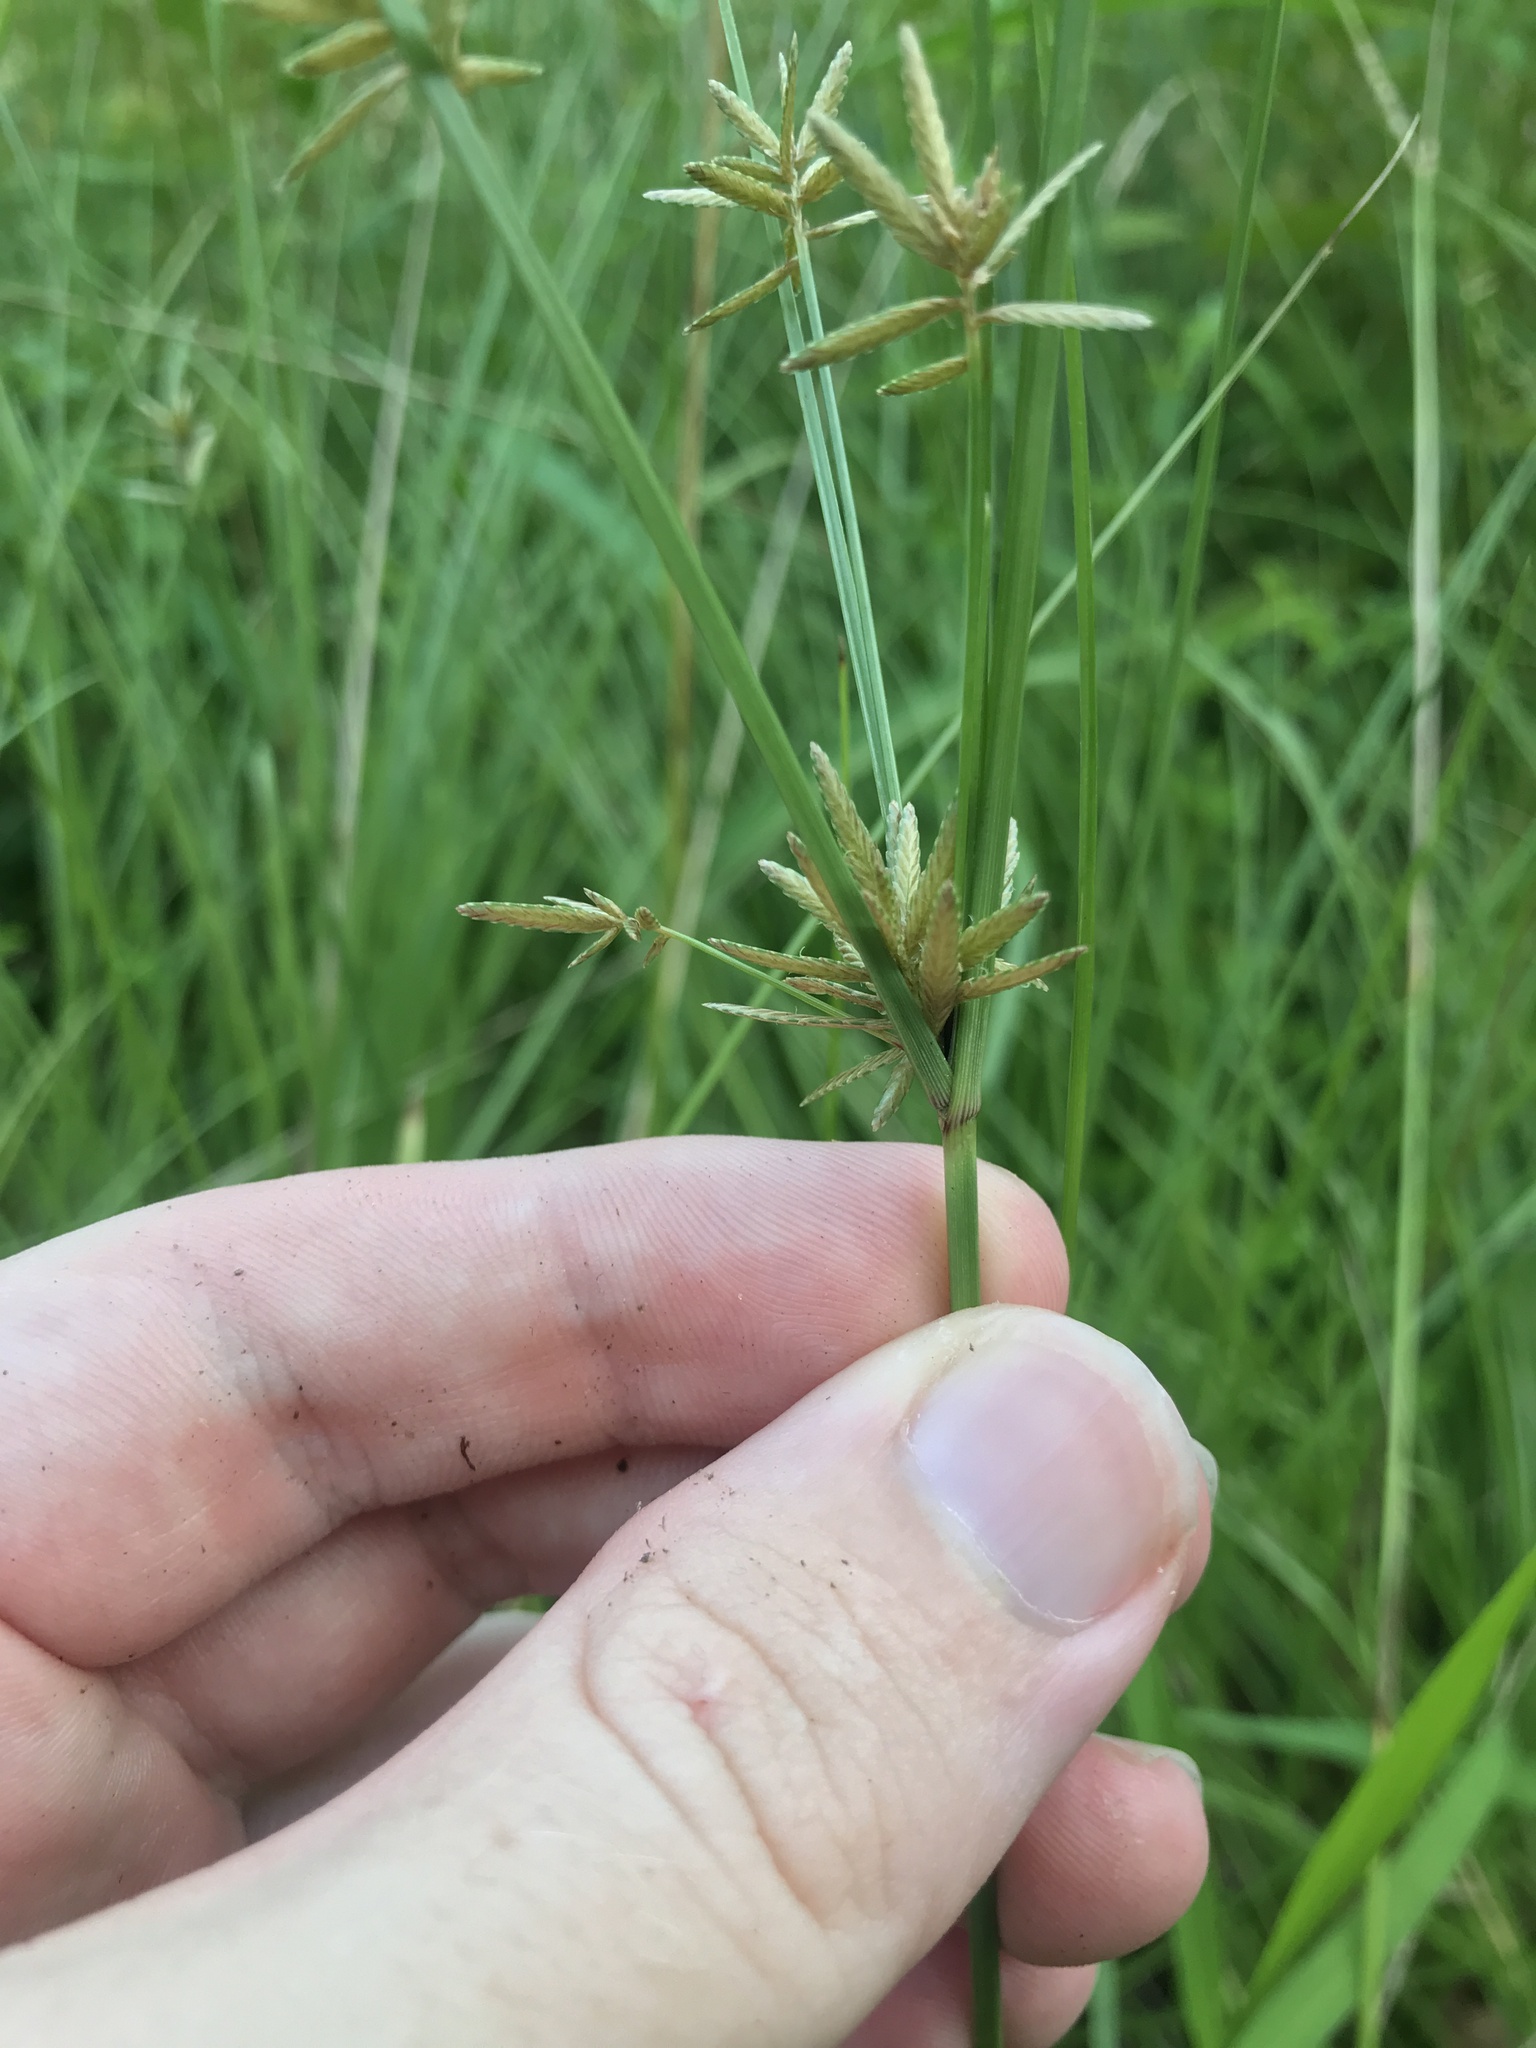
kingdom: Plantae
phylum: Tracheophyta
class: Liliopsida
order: Poales
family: Cyperaceae
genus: Cyperus
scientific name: Cyperus flavidus
